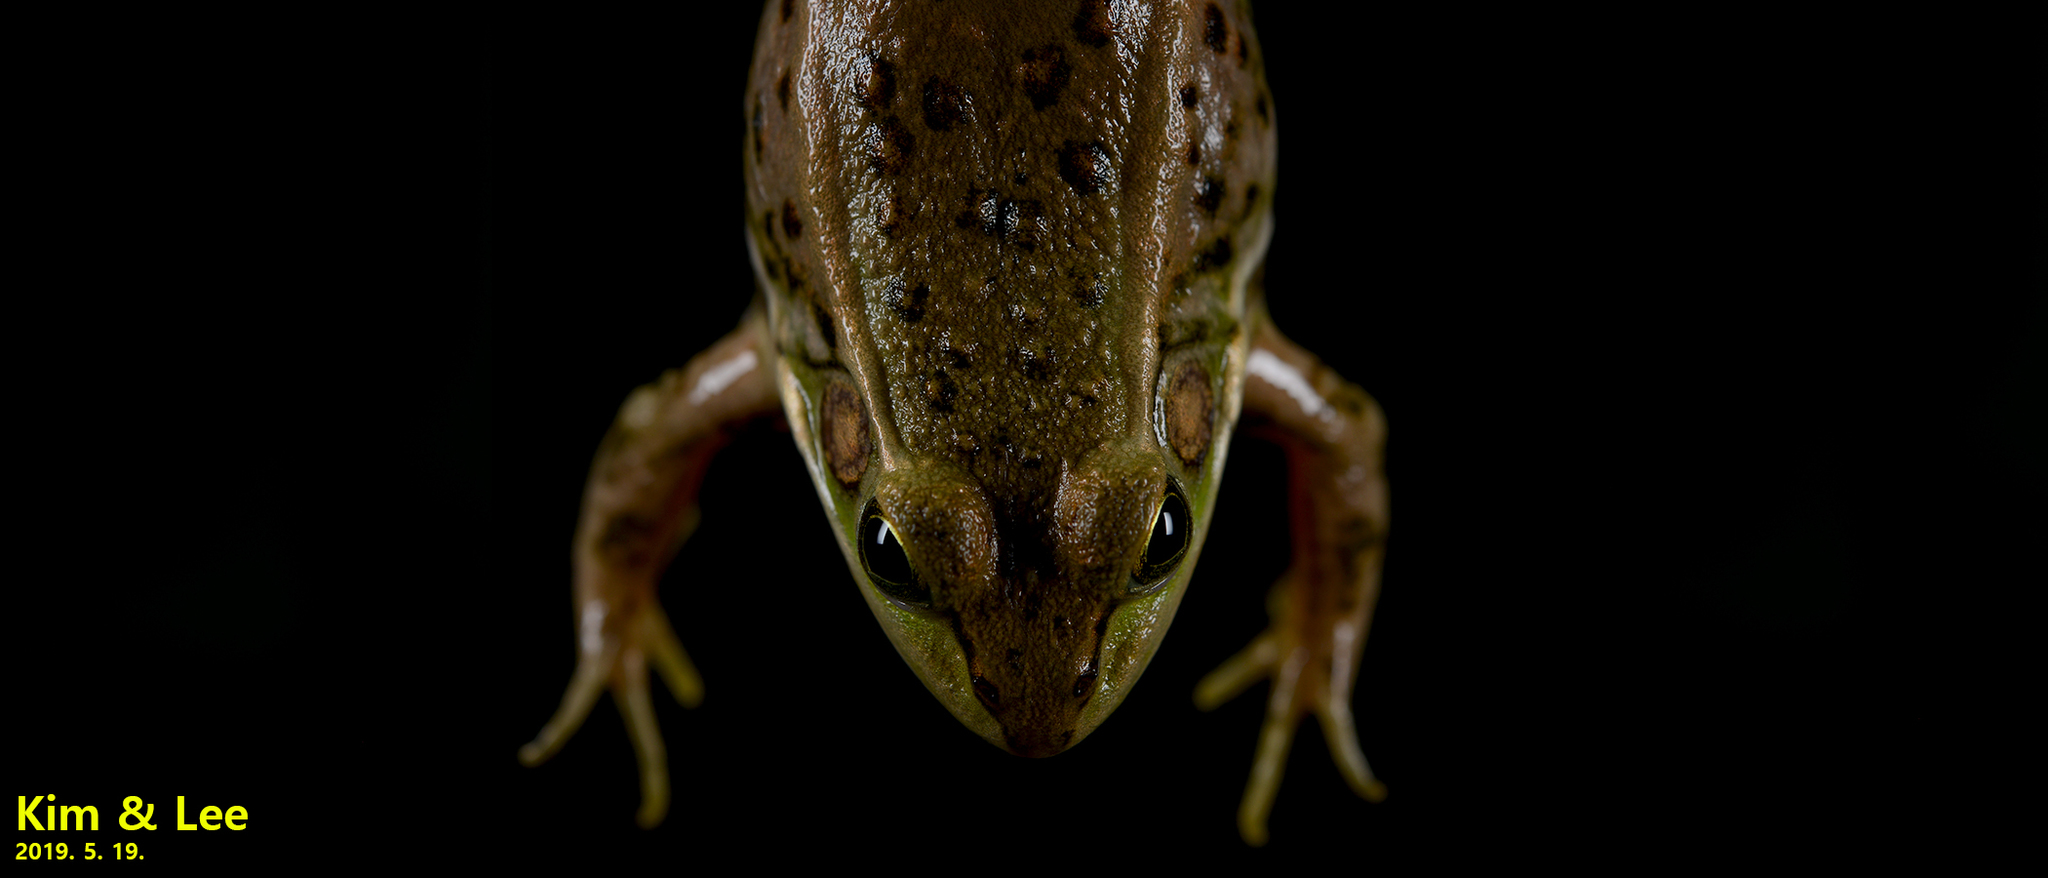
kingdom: Animalia
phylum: Chordata
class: Amphibia
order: Anura
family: Ranidae
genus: Pelophylax
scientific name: Pelophylax chosenicus
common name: Gold-spotted pond frog
